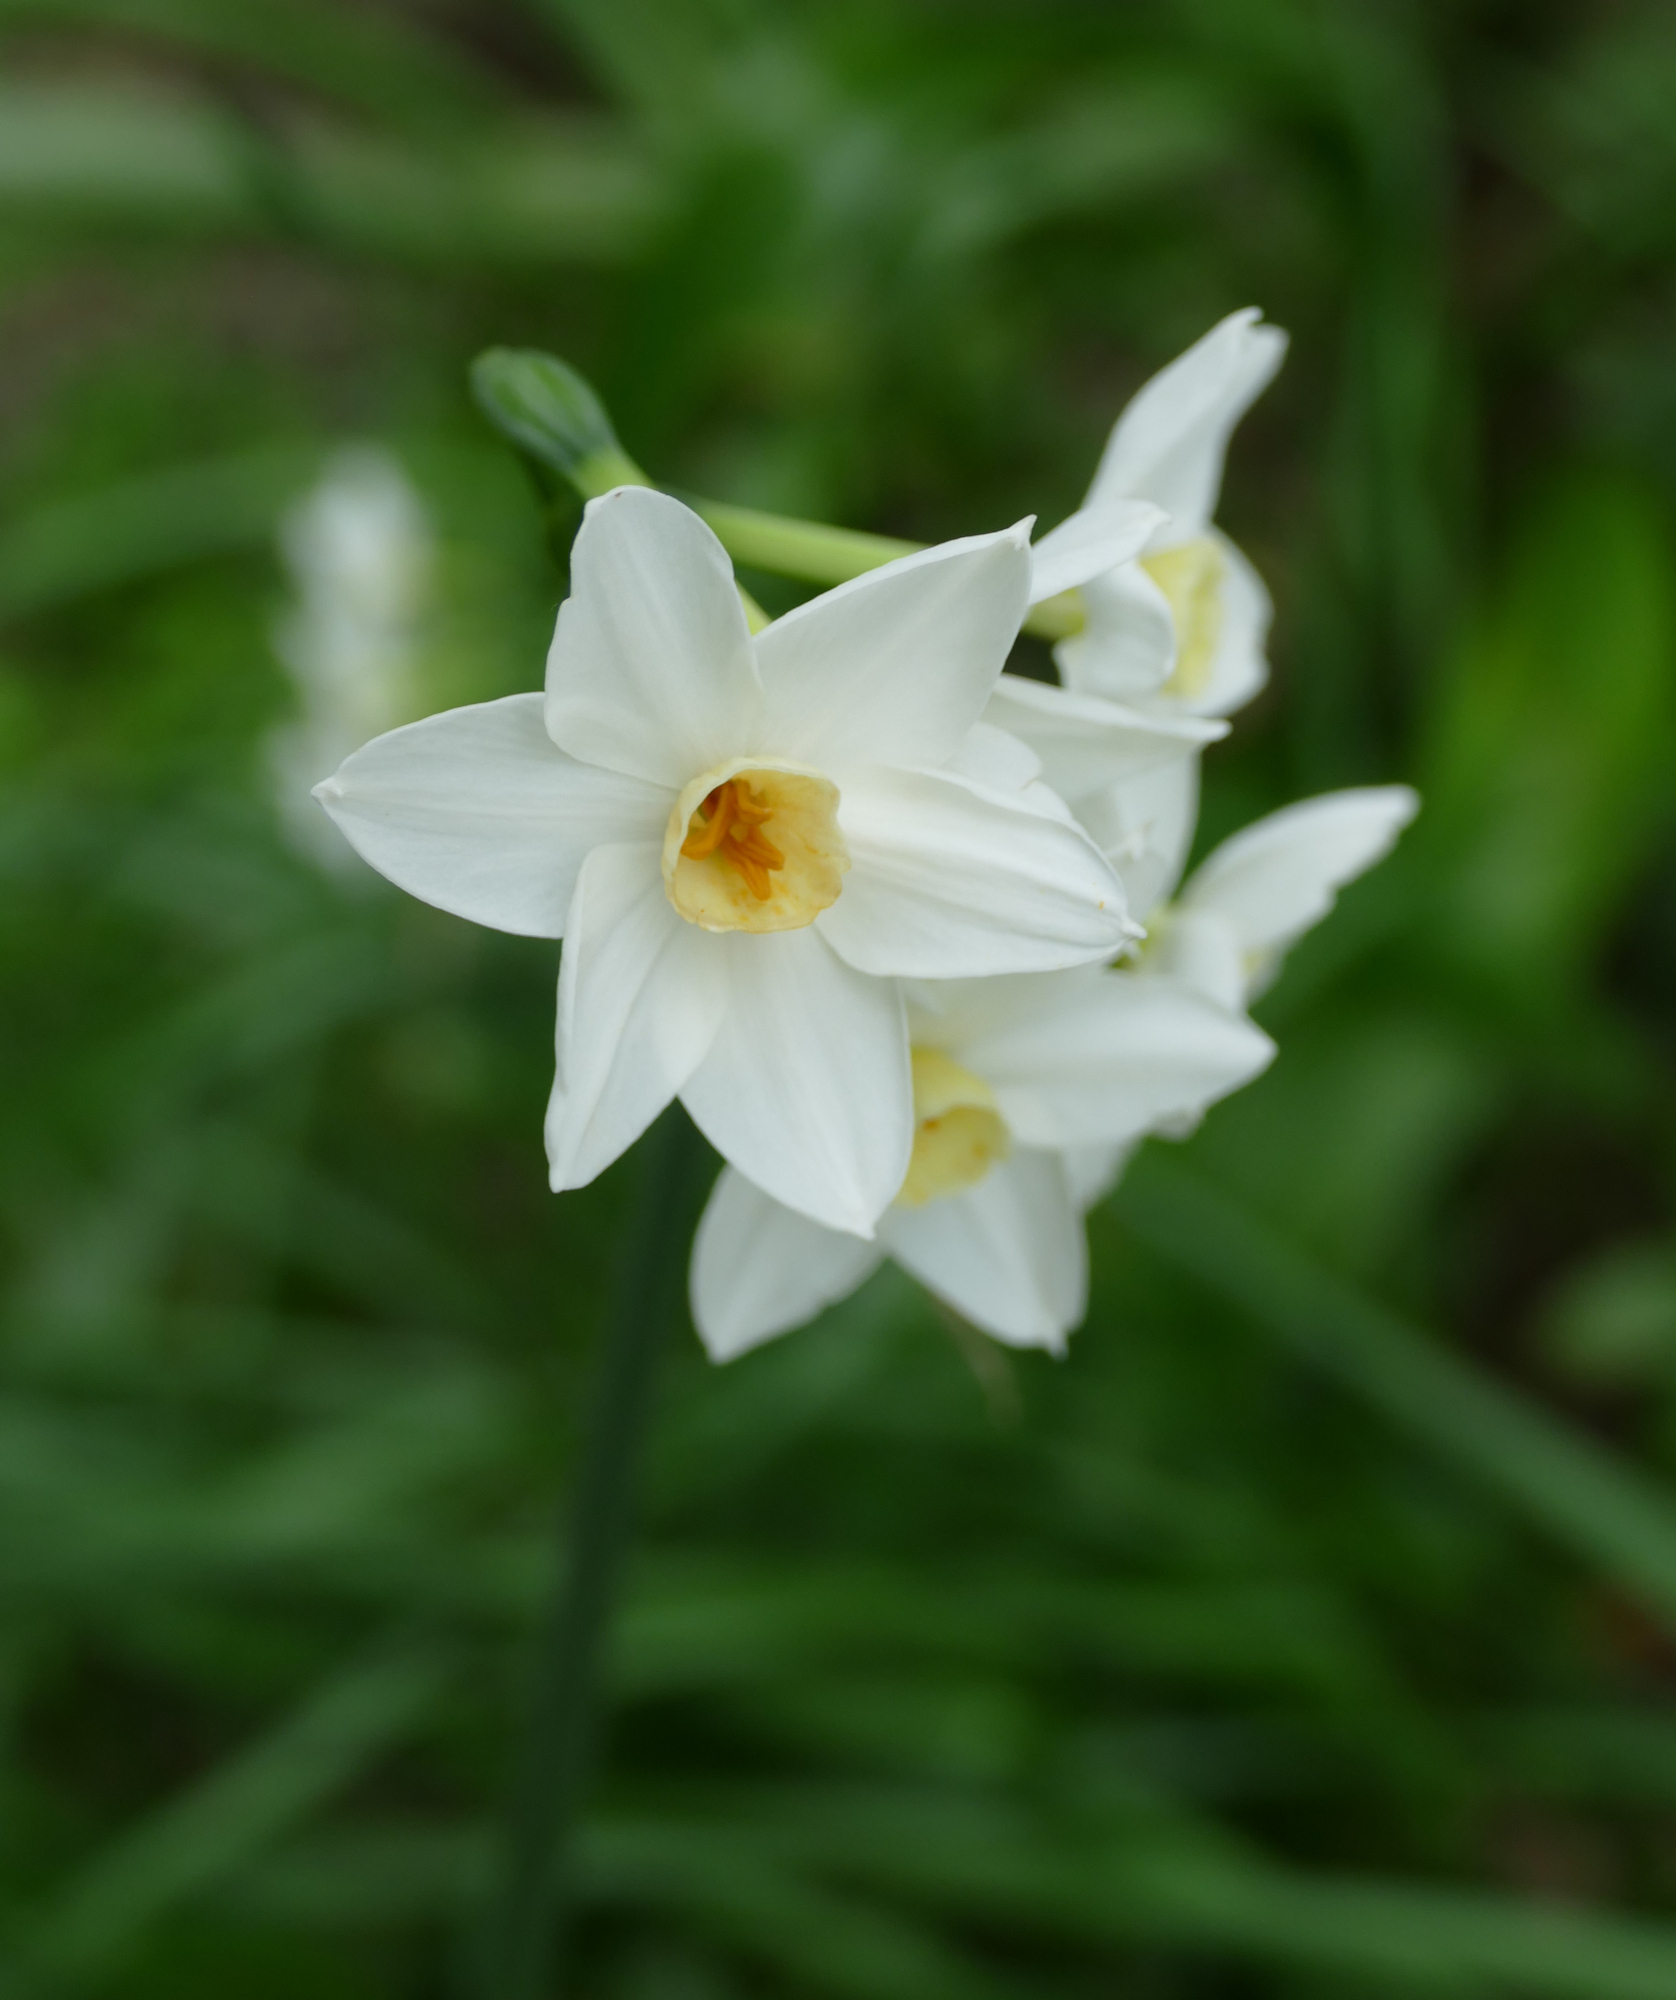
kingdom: Plantae
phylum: Tracheophyta
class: Liliopsida
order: Asparagales
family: Amaryllidaceae
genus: Narcissus
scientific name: Narcissus tazetta
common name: Bunch-flowered daffodil
